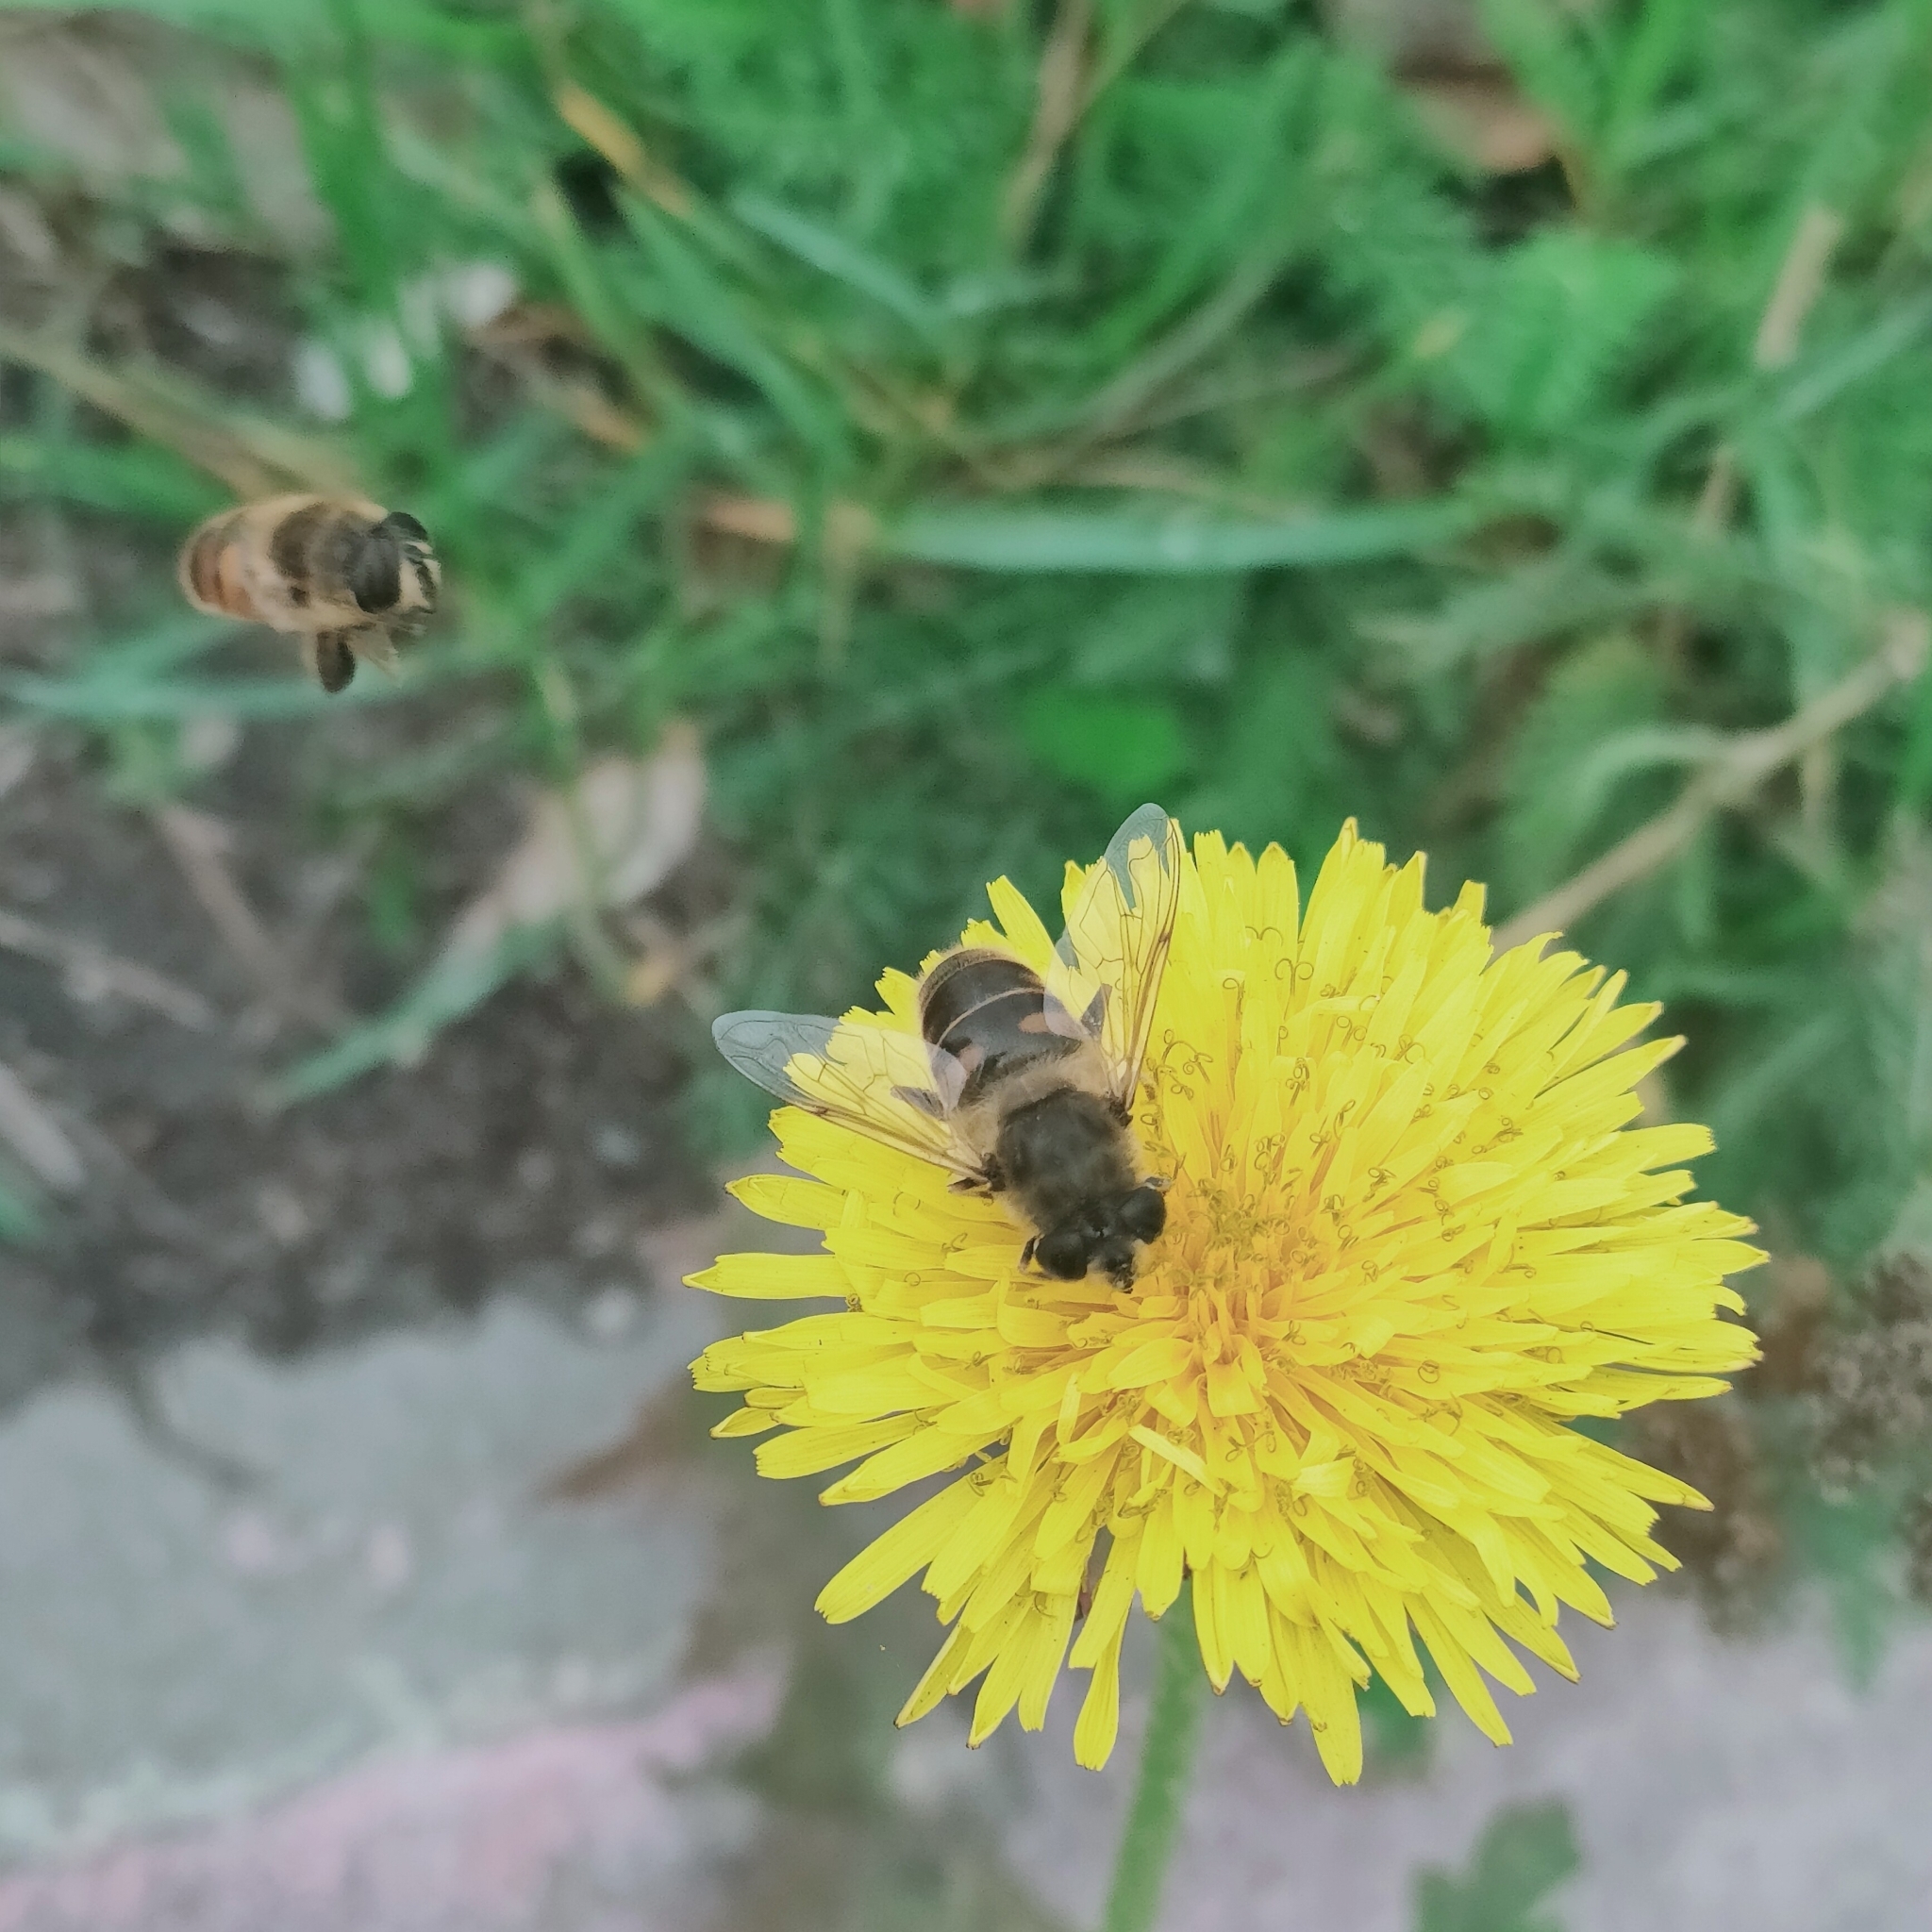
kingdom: Animalia
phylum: Arthropoda
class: Insecta
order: Diptera
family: Syrphidae
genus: Eristalis
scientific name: Eristalis tenax
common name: Drone fly
